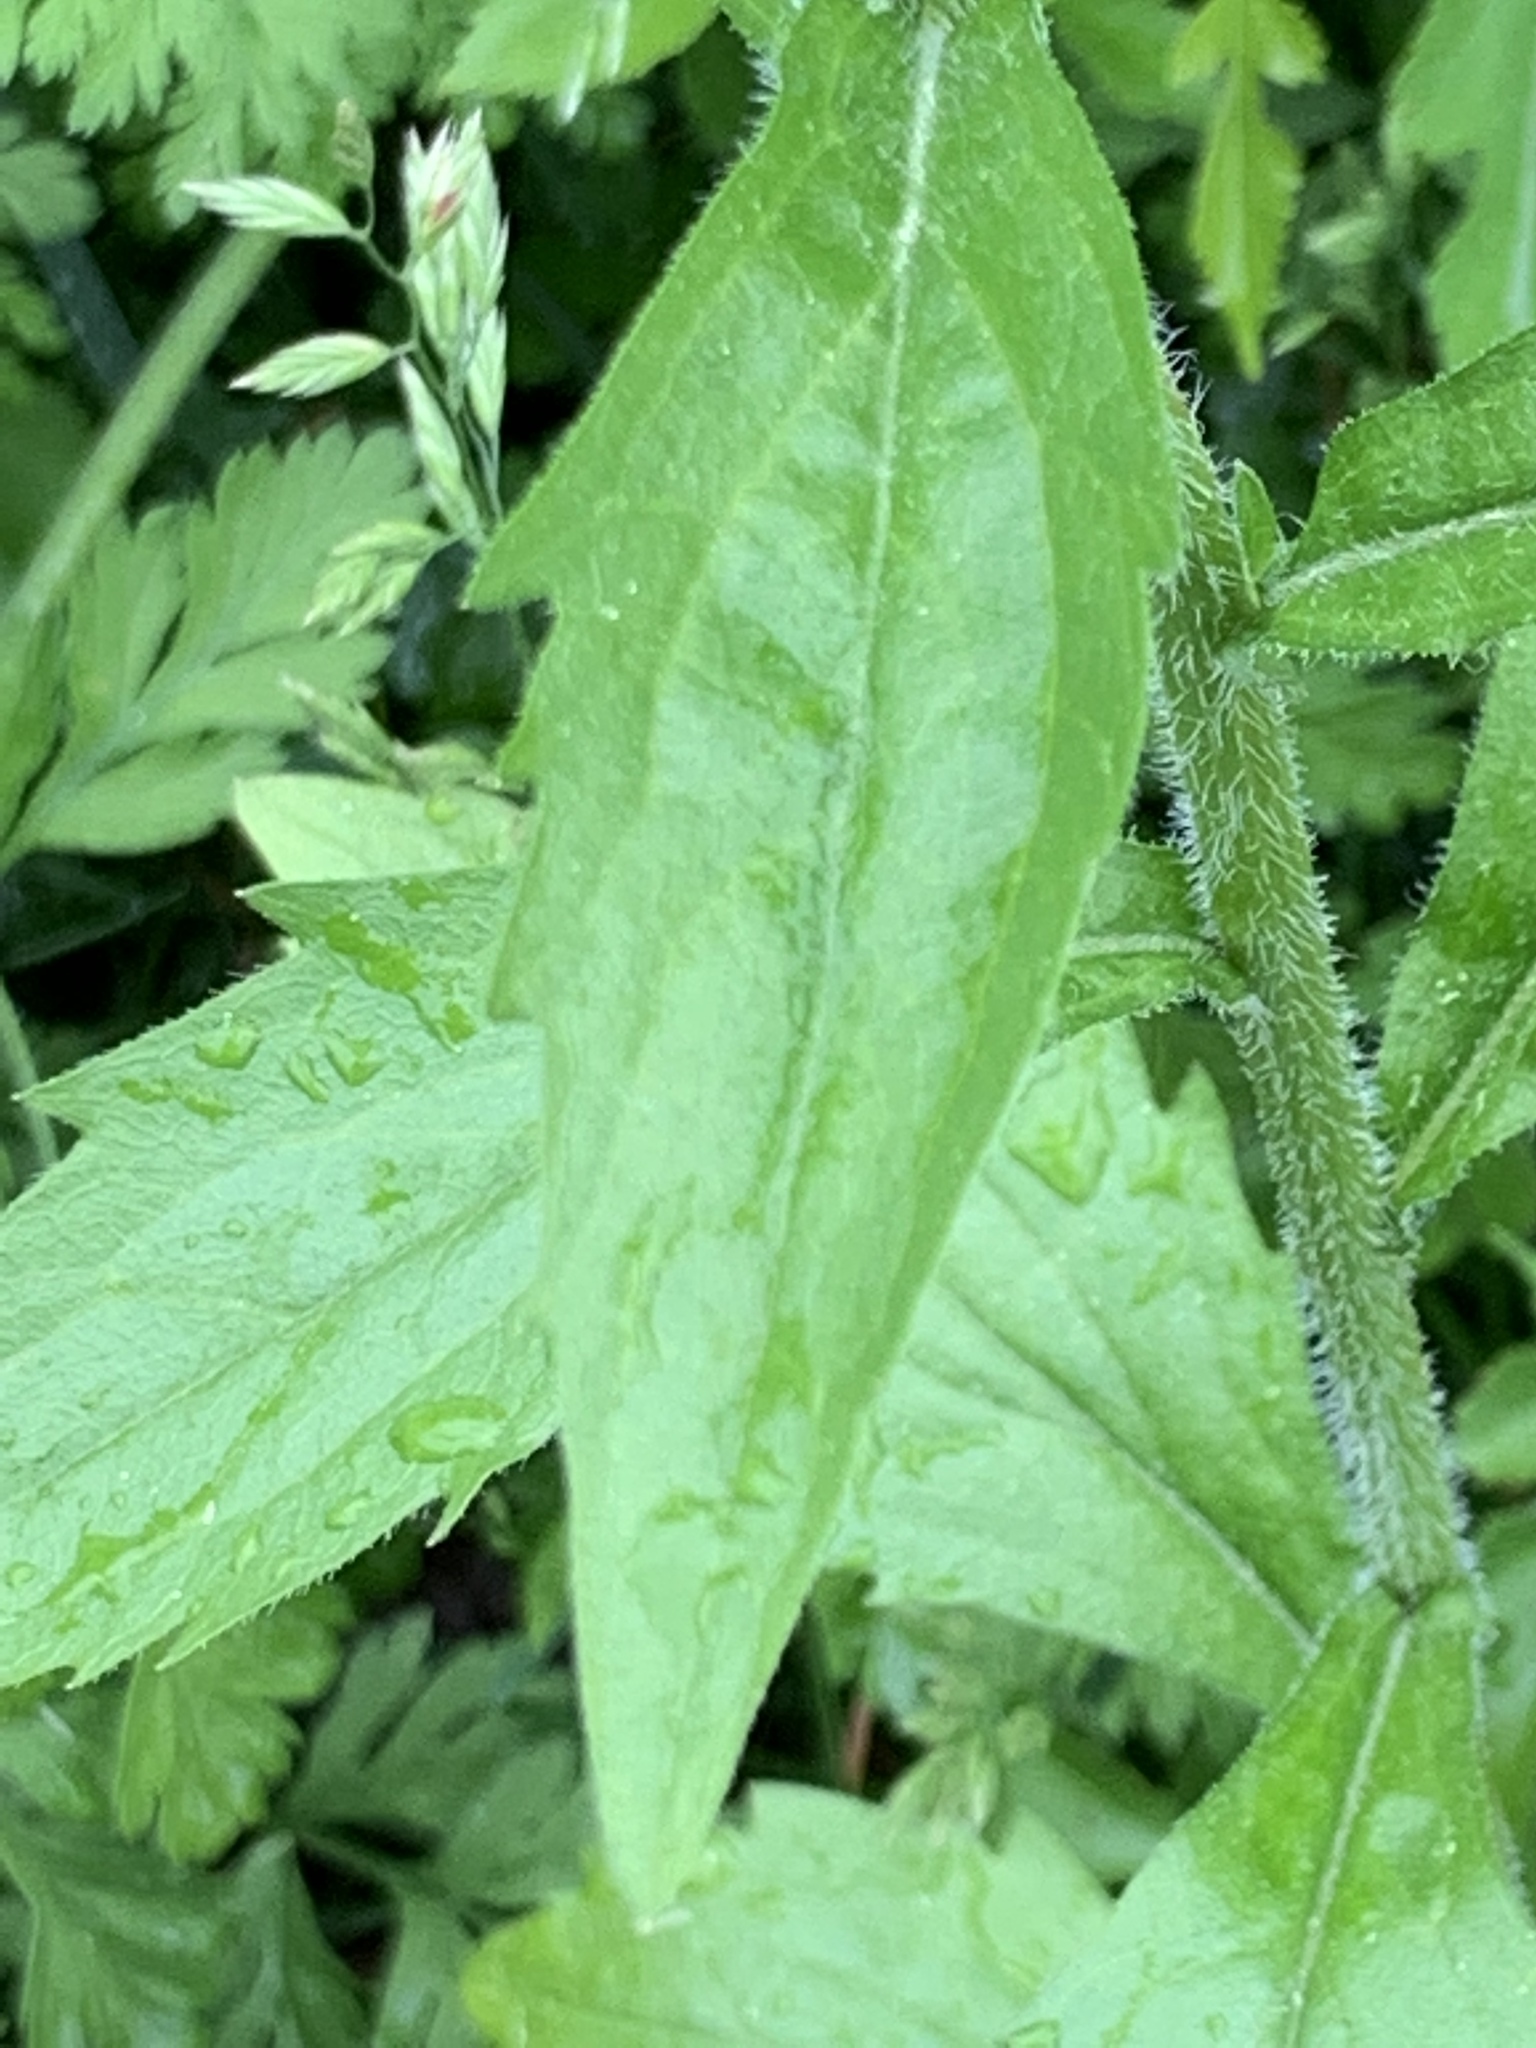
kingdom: Plantae
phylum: Tracheophyta
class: Magnoliopsida
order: Asterales
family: Asteraceae
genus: Erigeron
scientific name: Erigeron annuus
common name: Tall fleabane
